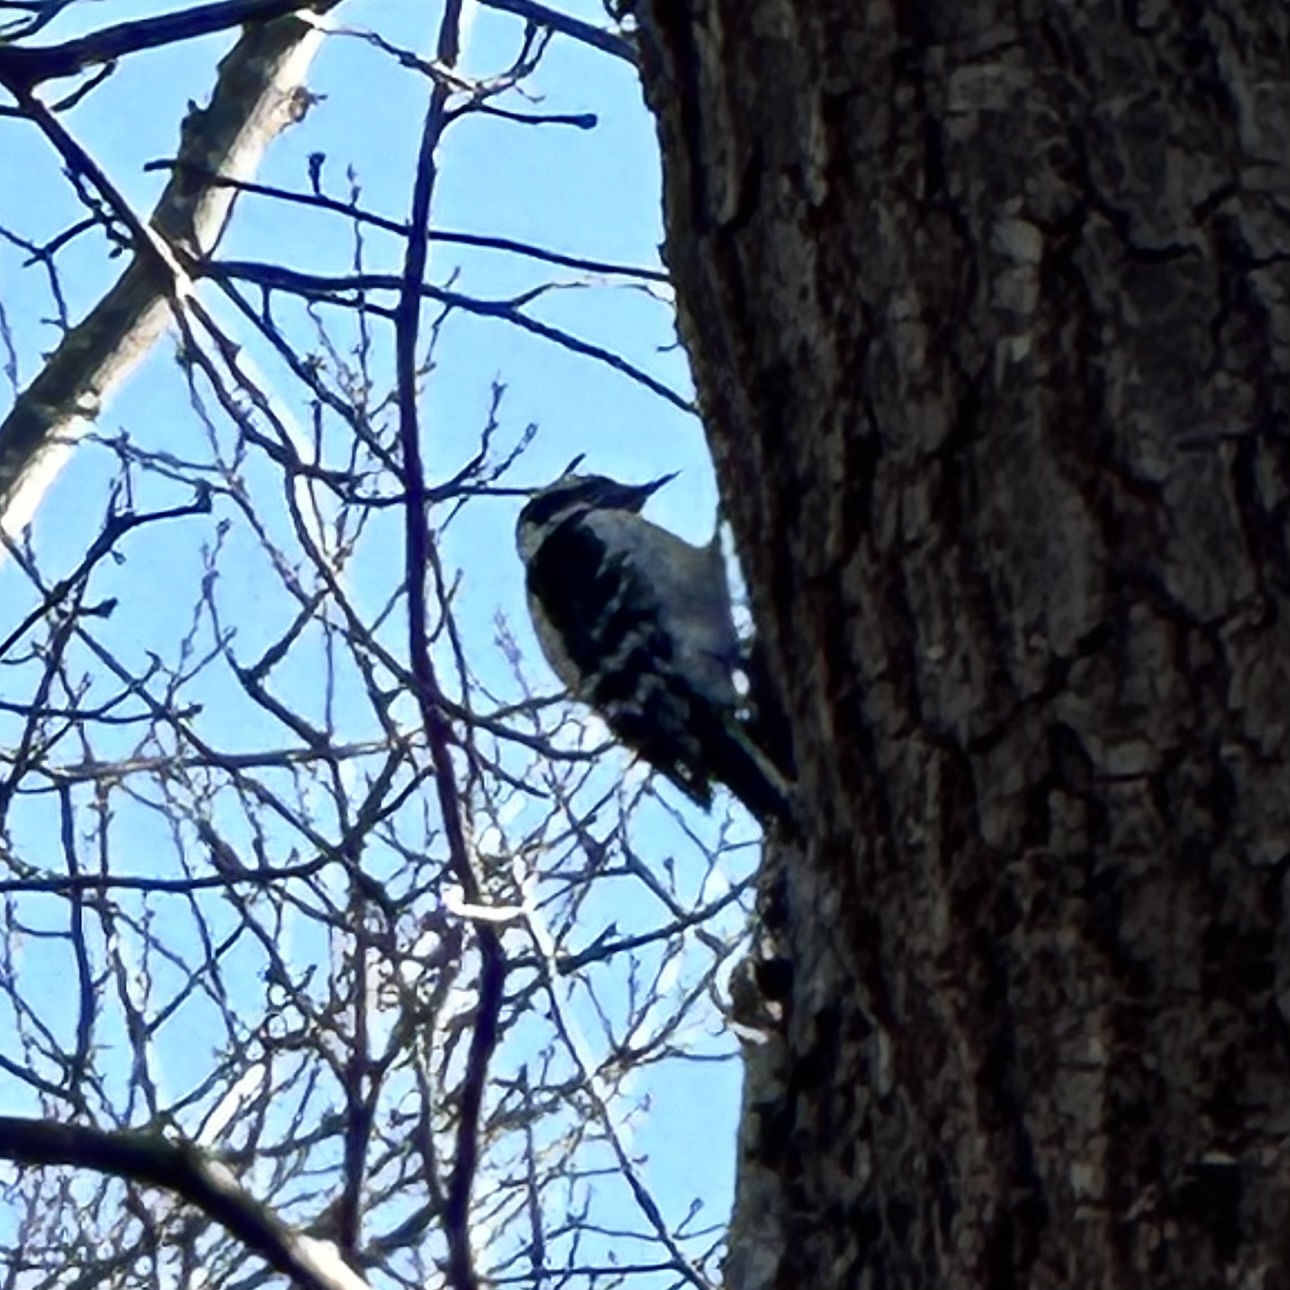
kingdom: Animalia
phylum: Chordata
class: Aves
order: Piciformes
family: Picidae
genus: Dryobates
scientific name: Dryobates pubescens
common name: Downy woodpecker
